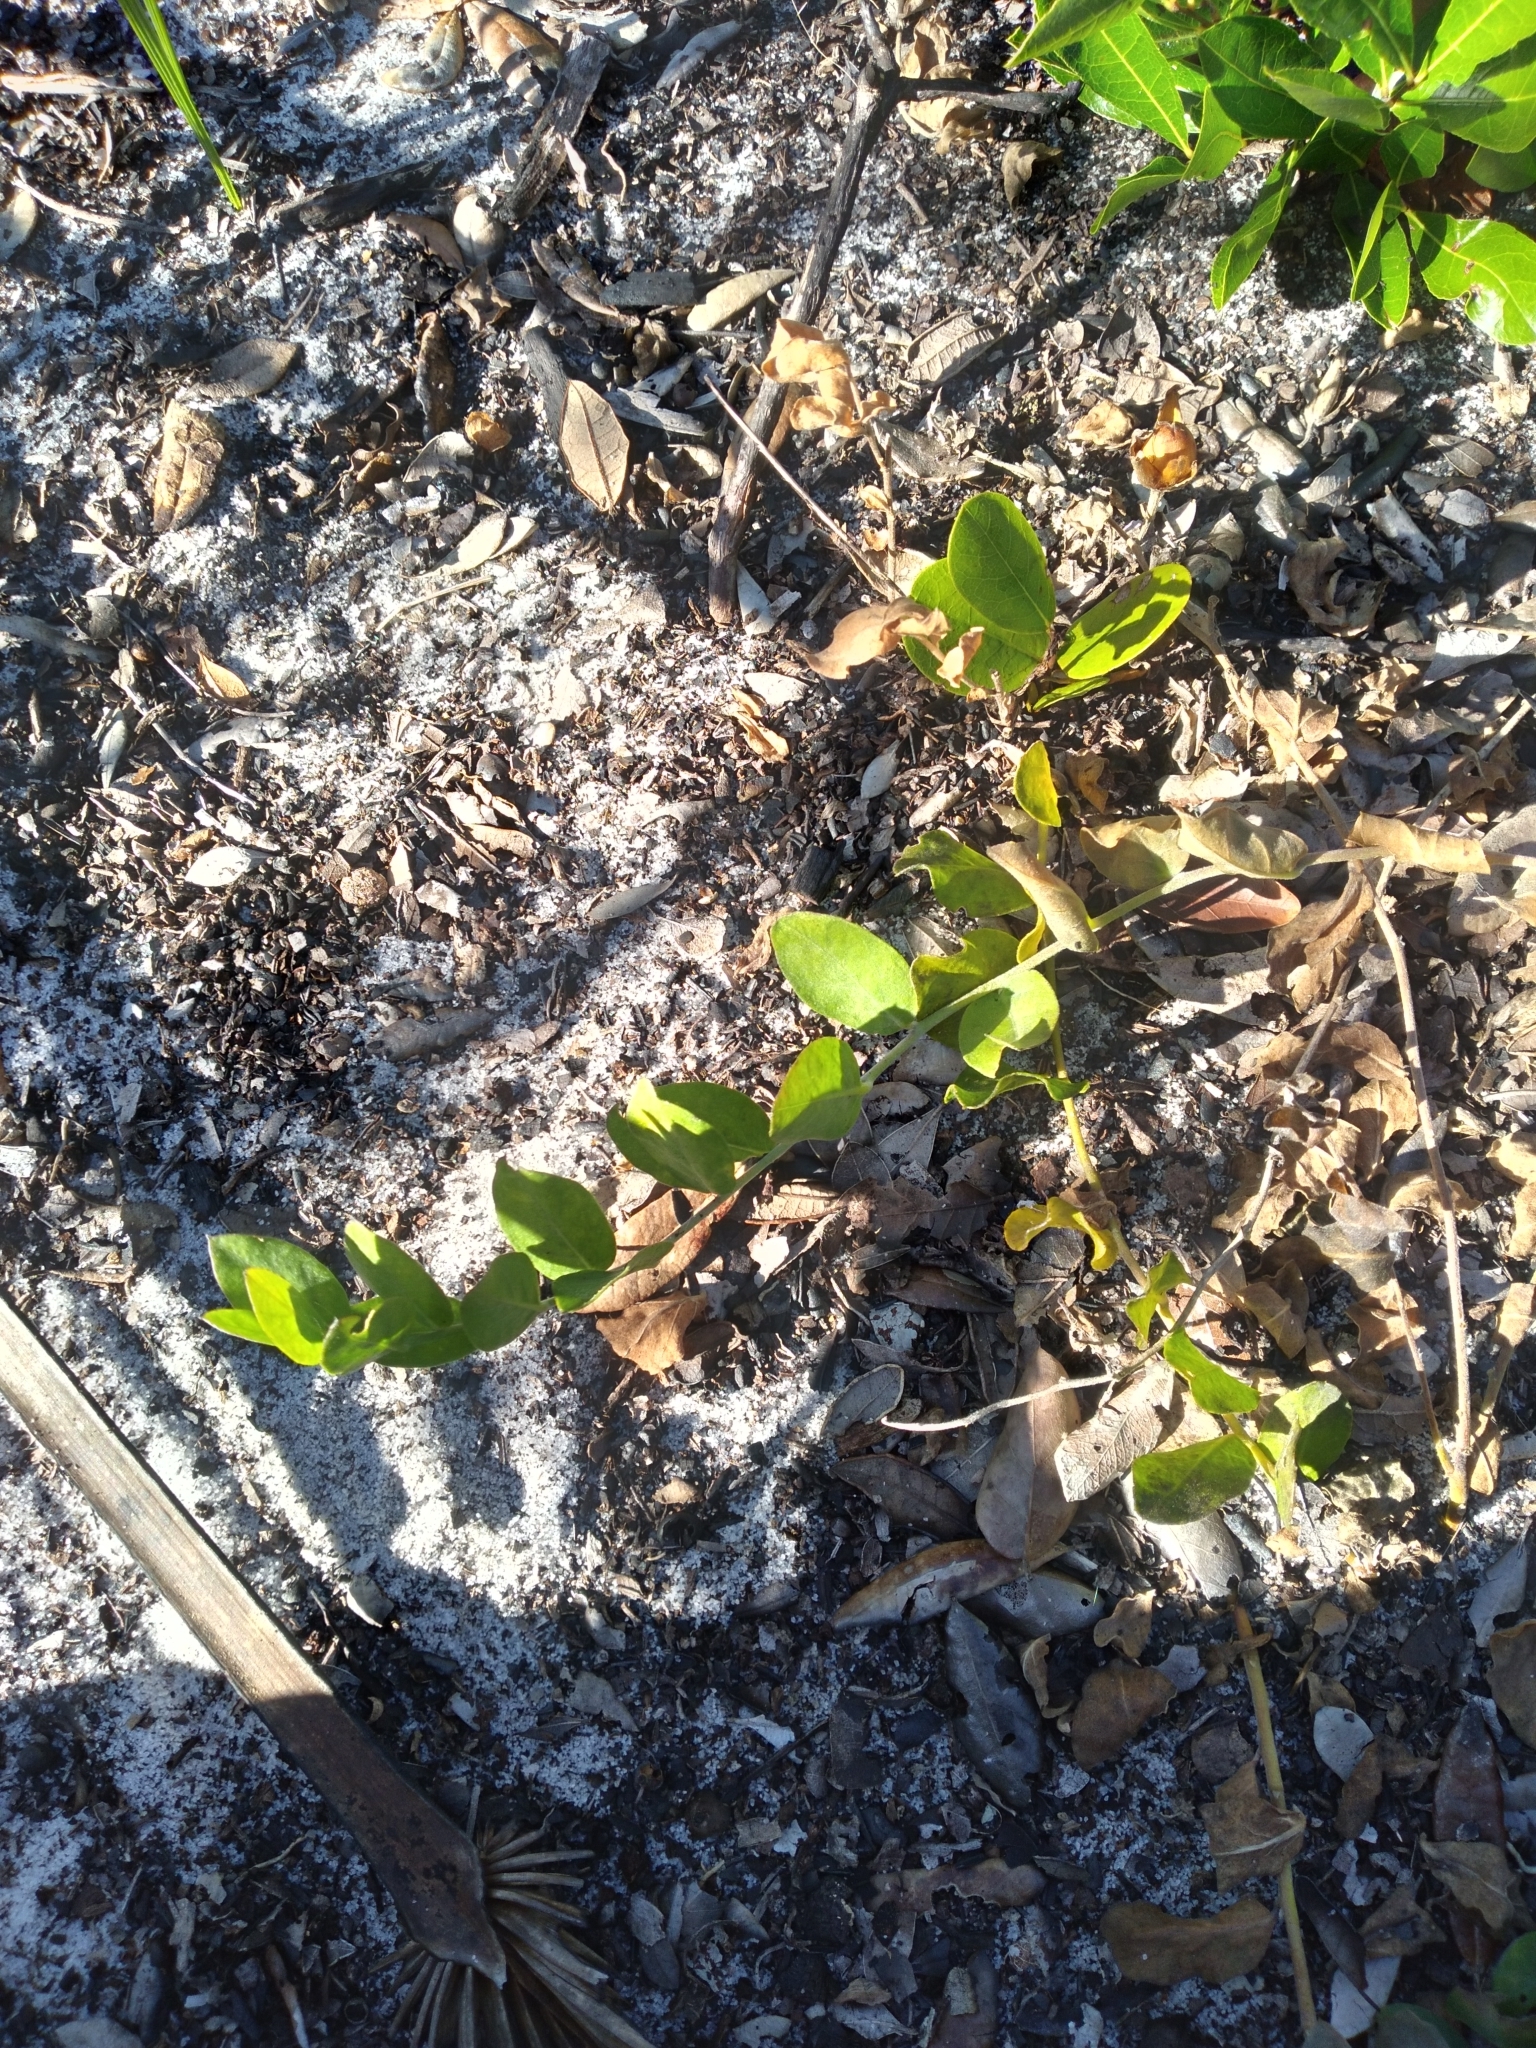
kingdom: Plantae
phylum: Tracheophyta
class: Magnoliopsida
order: Solanales
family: Convolvulaceae
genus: Bonamia
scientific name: Bonamia grandiflora
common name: Florida bonamia
